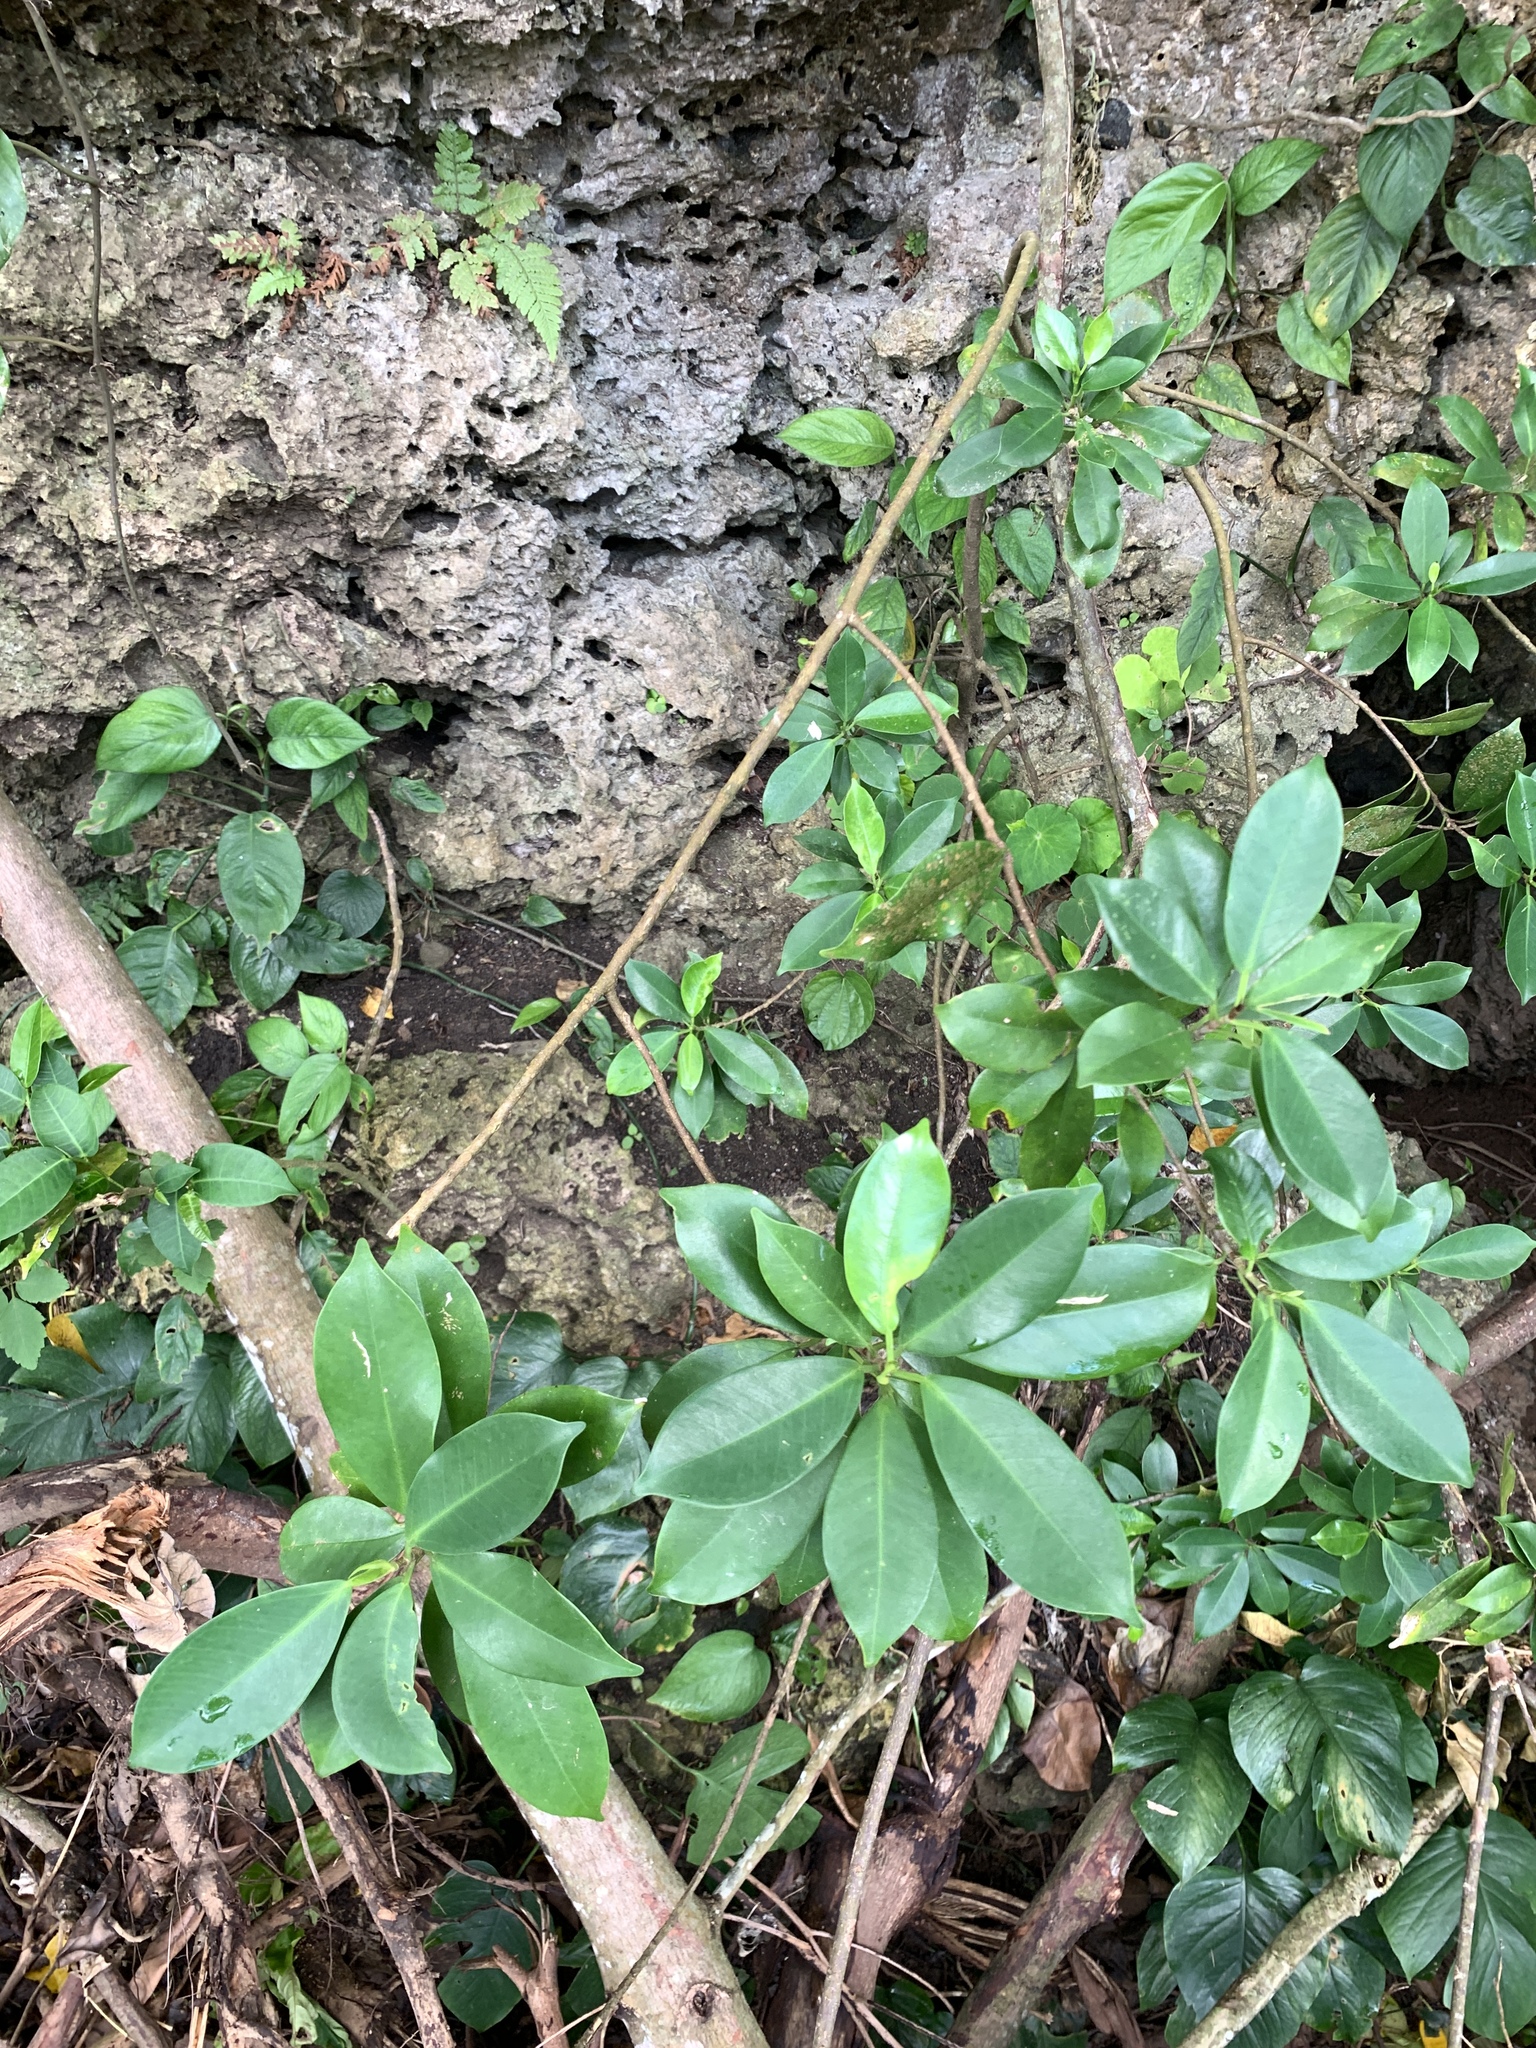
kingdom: Plantae
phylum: Tracheophyta
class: Magnoliopsida
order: Rosales
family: Moraceae
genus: Ficus
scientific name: Ficus microcarpa
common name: Chinese banyan
